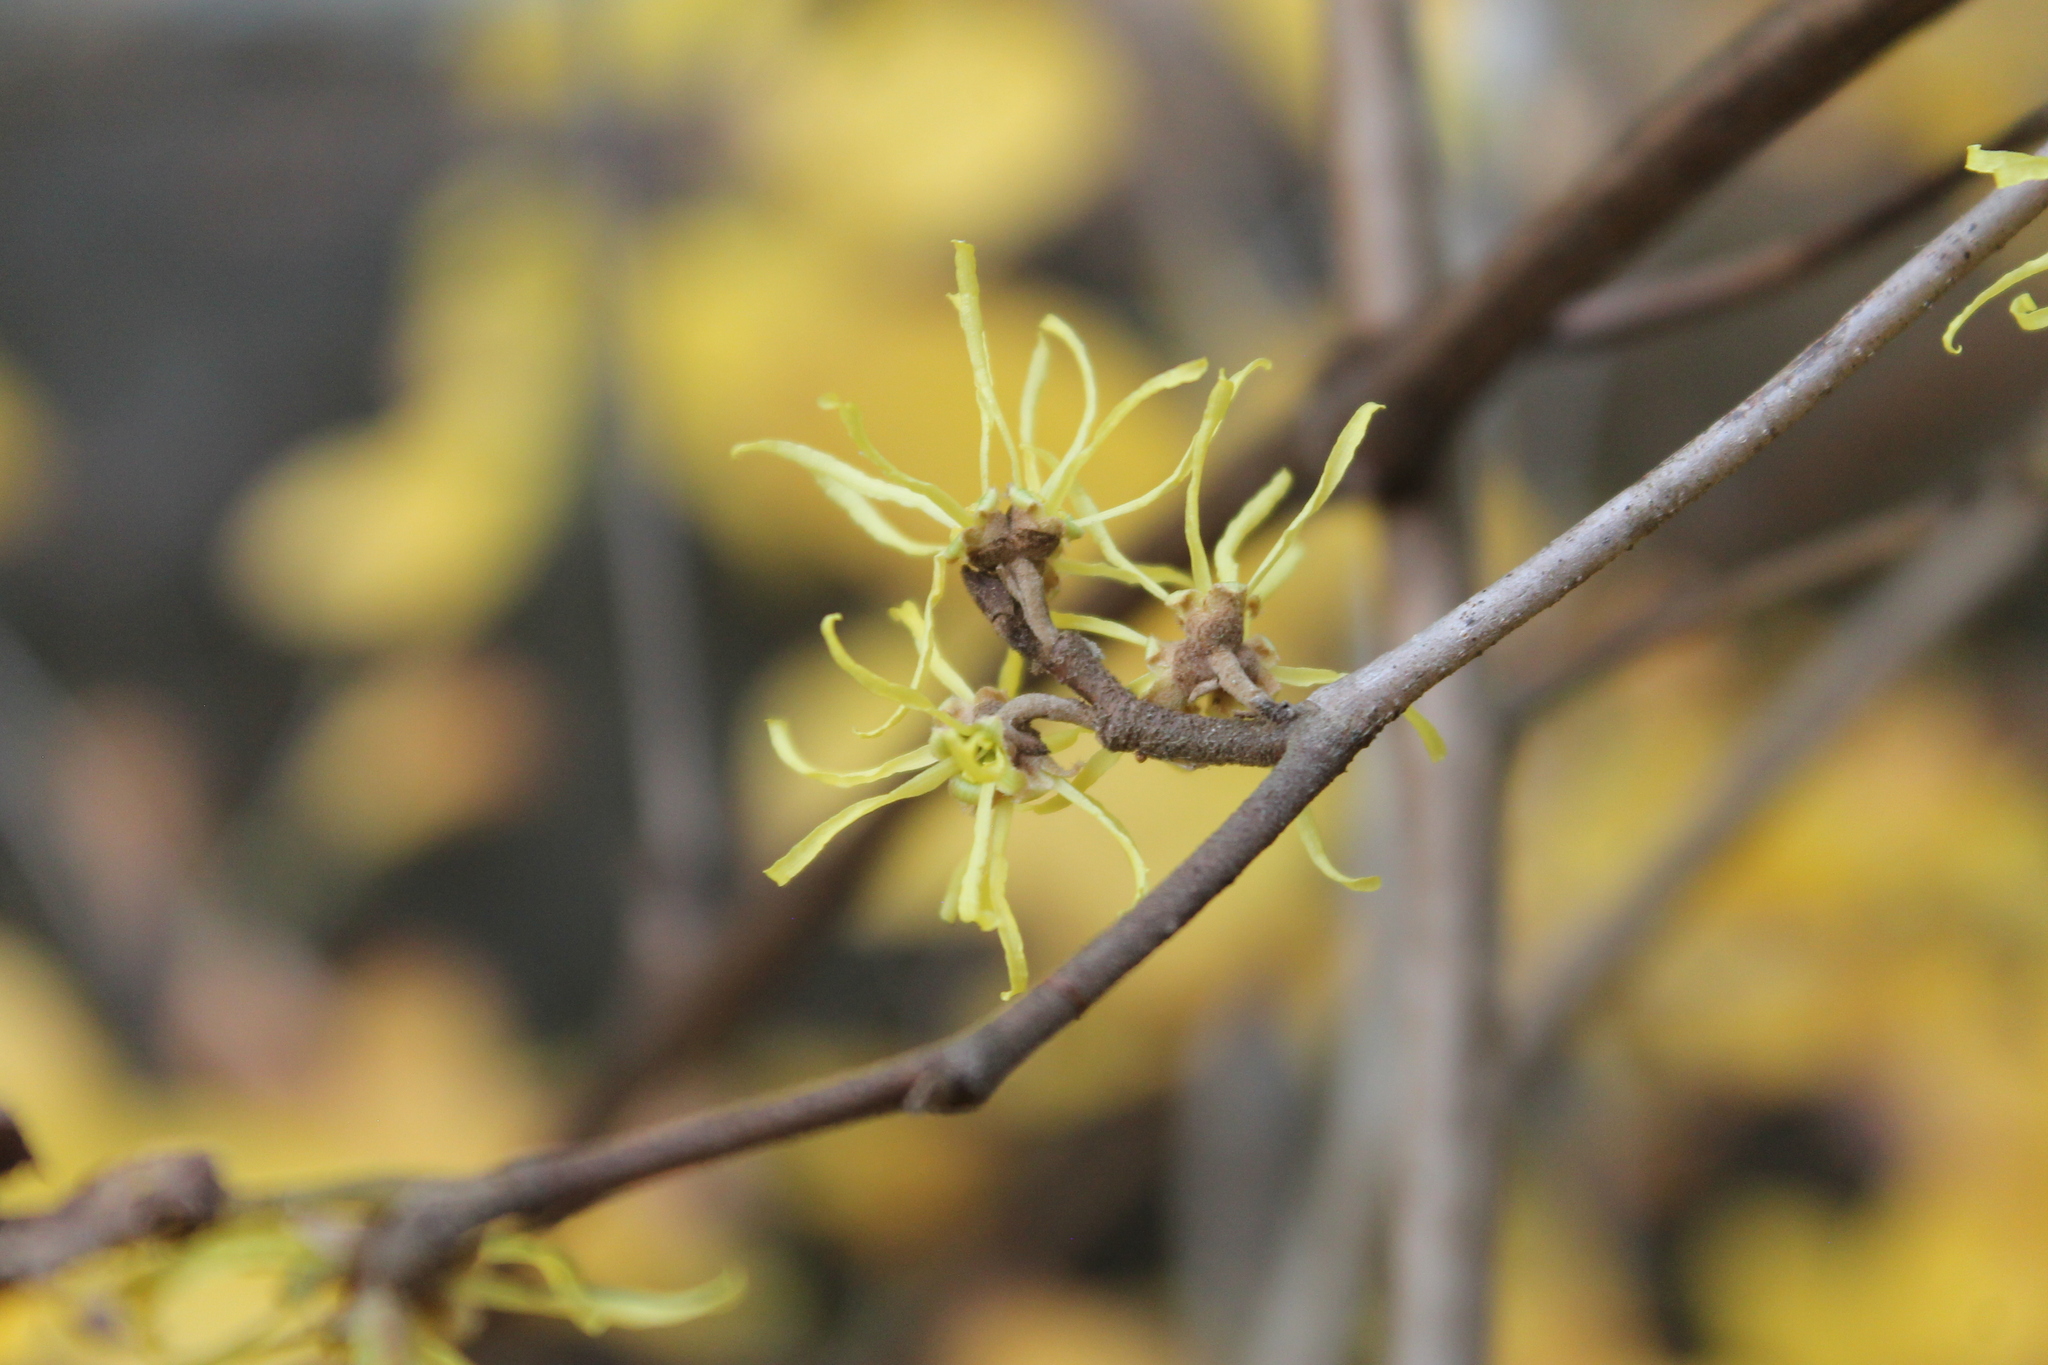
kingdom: Plantae
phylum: Tracheophyta
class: Magnoliopsida
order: Saxifragales
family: Hamamelidaceae
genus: Hamamelis
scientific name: Hamamelis virginiana
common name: Witch-hazel
